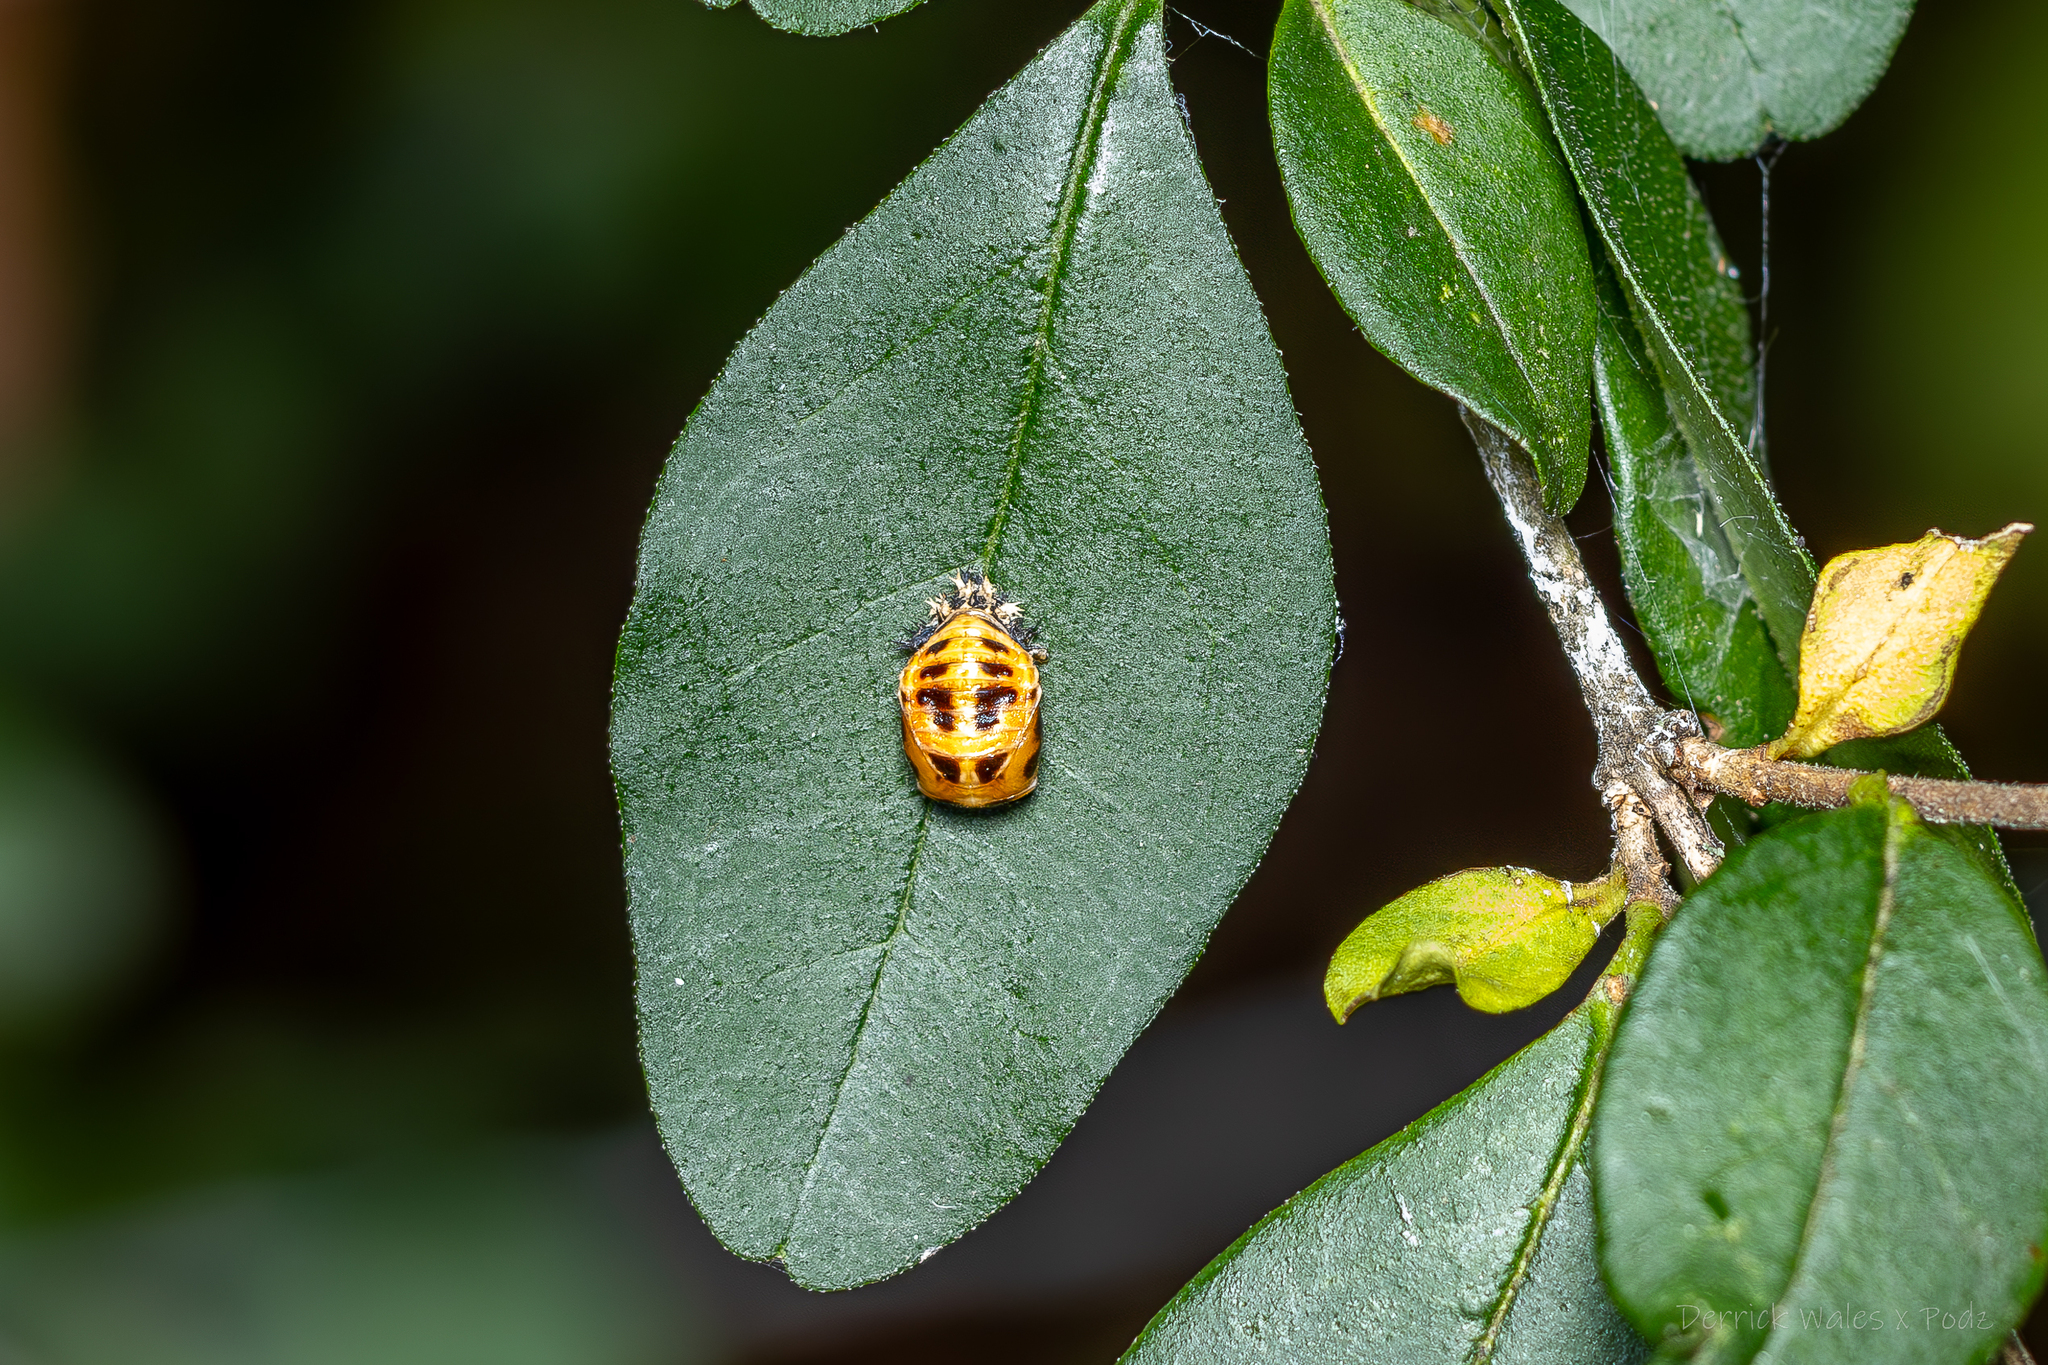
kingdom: Animalia
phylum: Arthropoda
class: Insecta
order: Coleoptera
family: Coccinellidae
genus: Harmonia
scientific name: Harmonia axyridis
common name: Harlequin ladybird
